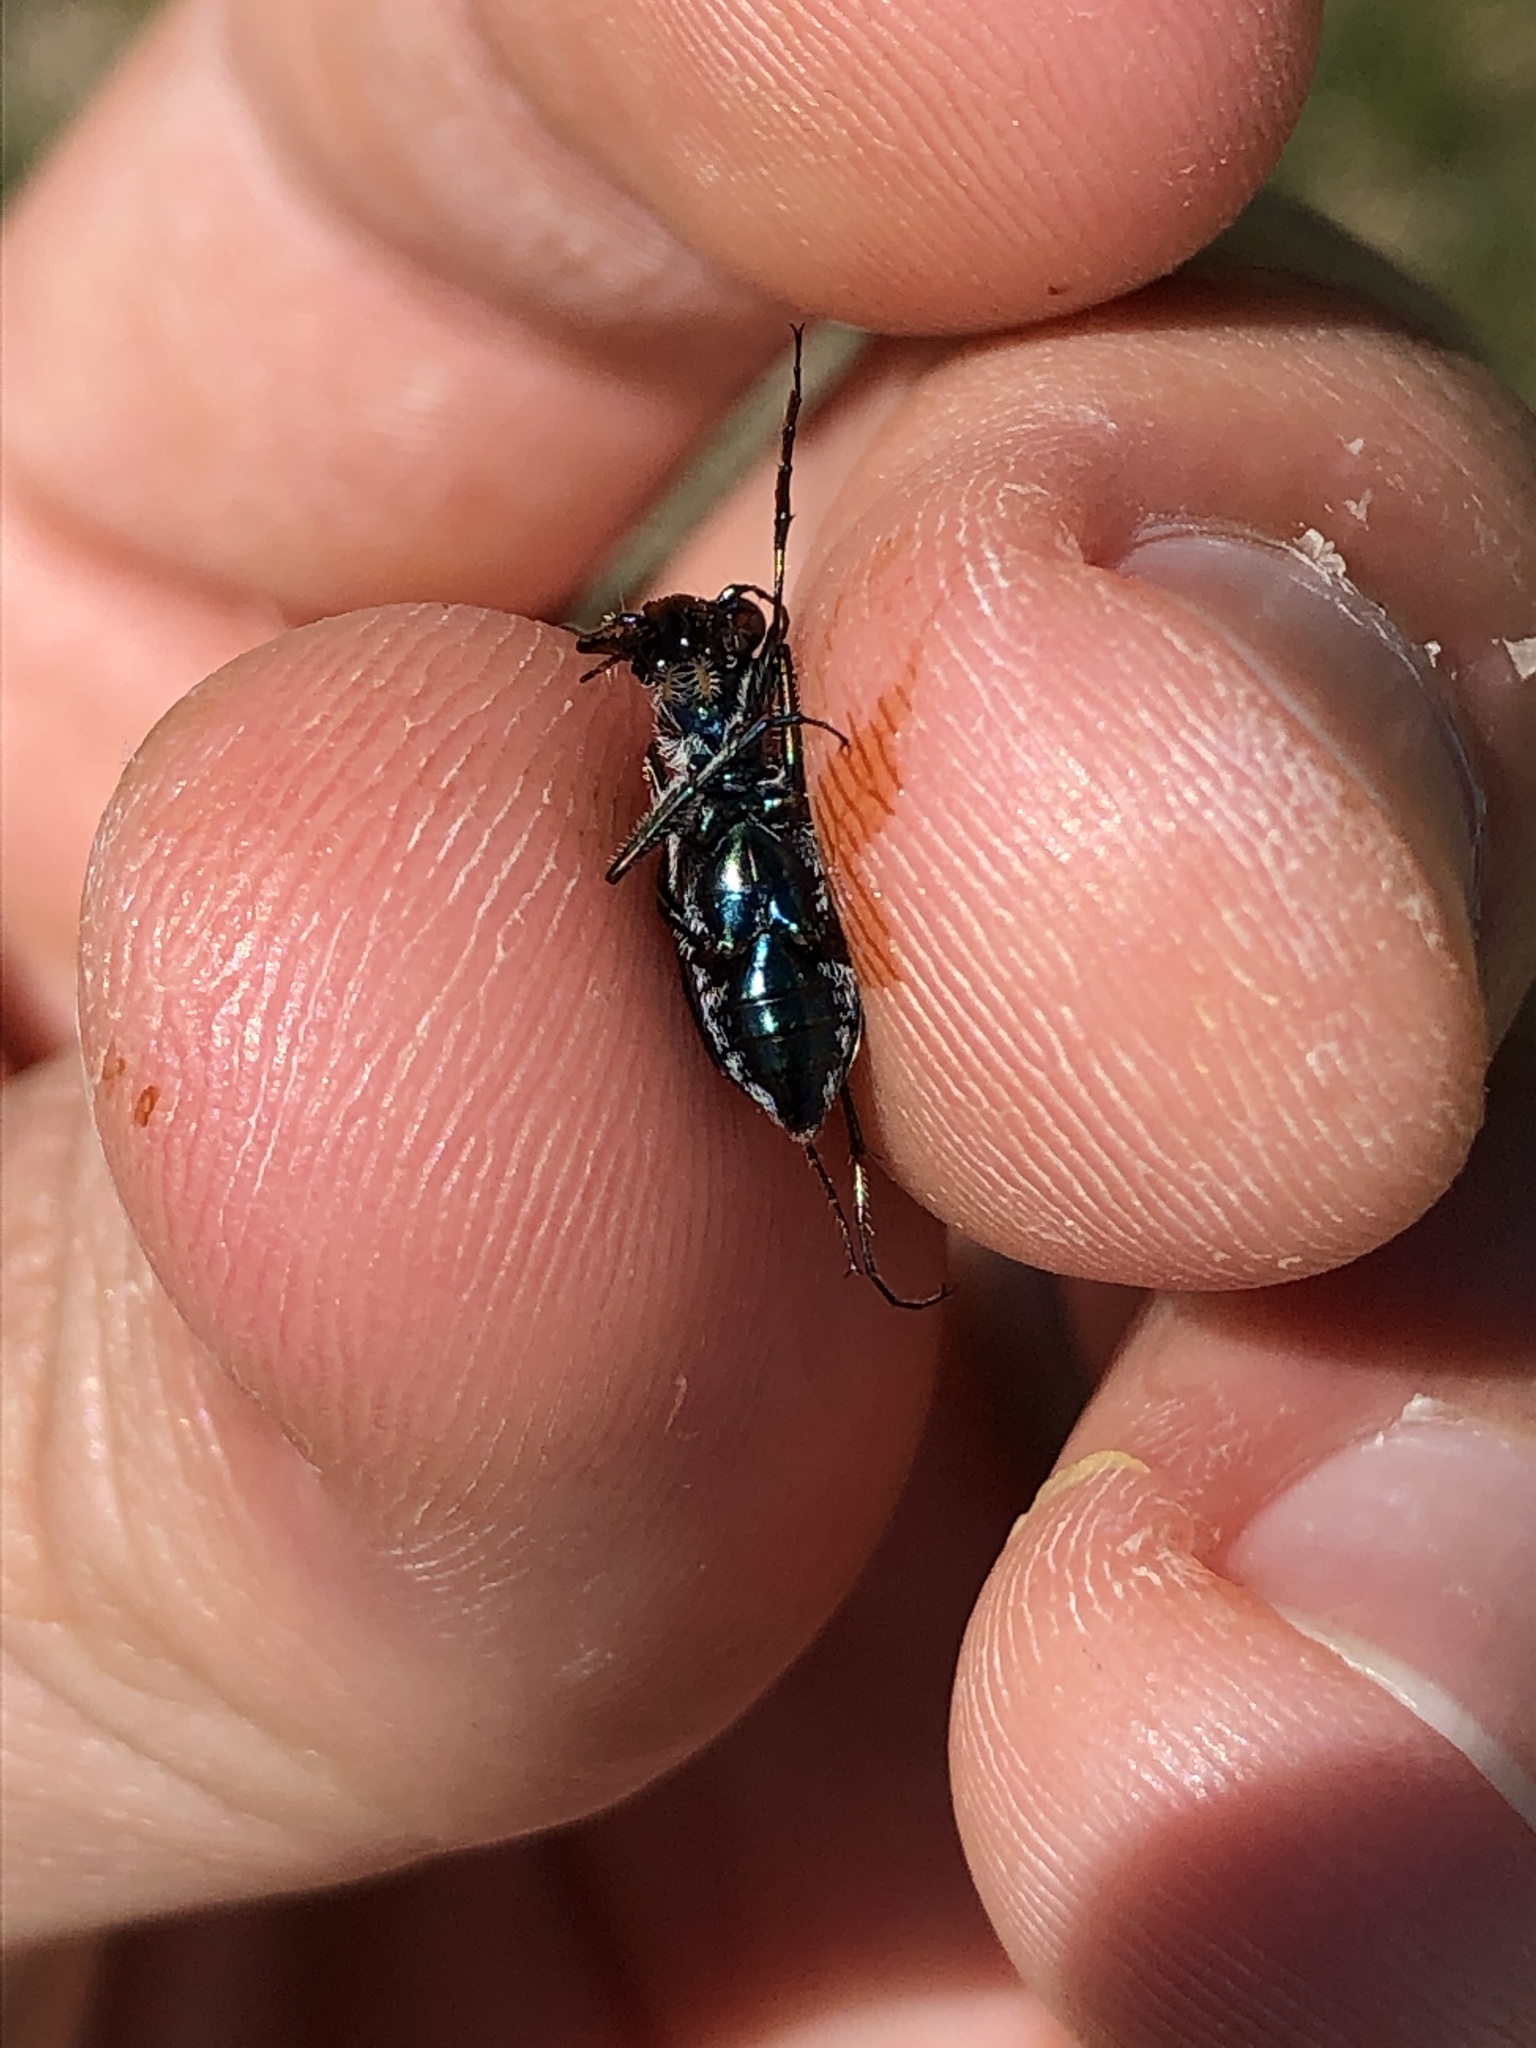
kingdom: Animalia
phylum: Arthropoda
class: Insecta
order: Coleoptera
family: Carabidae
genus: Cicindela
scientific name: Cicindela punctulata
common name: Punctured tiger beetle
